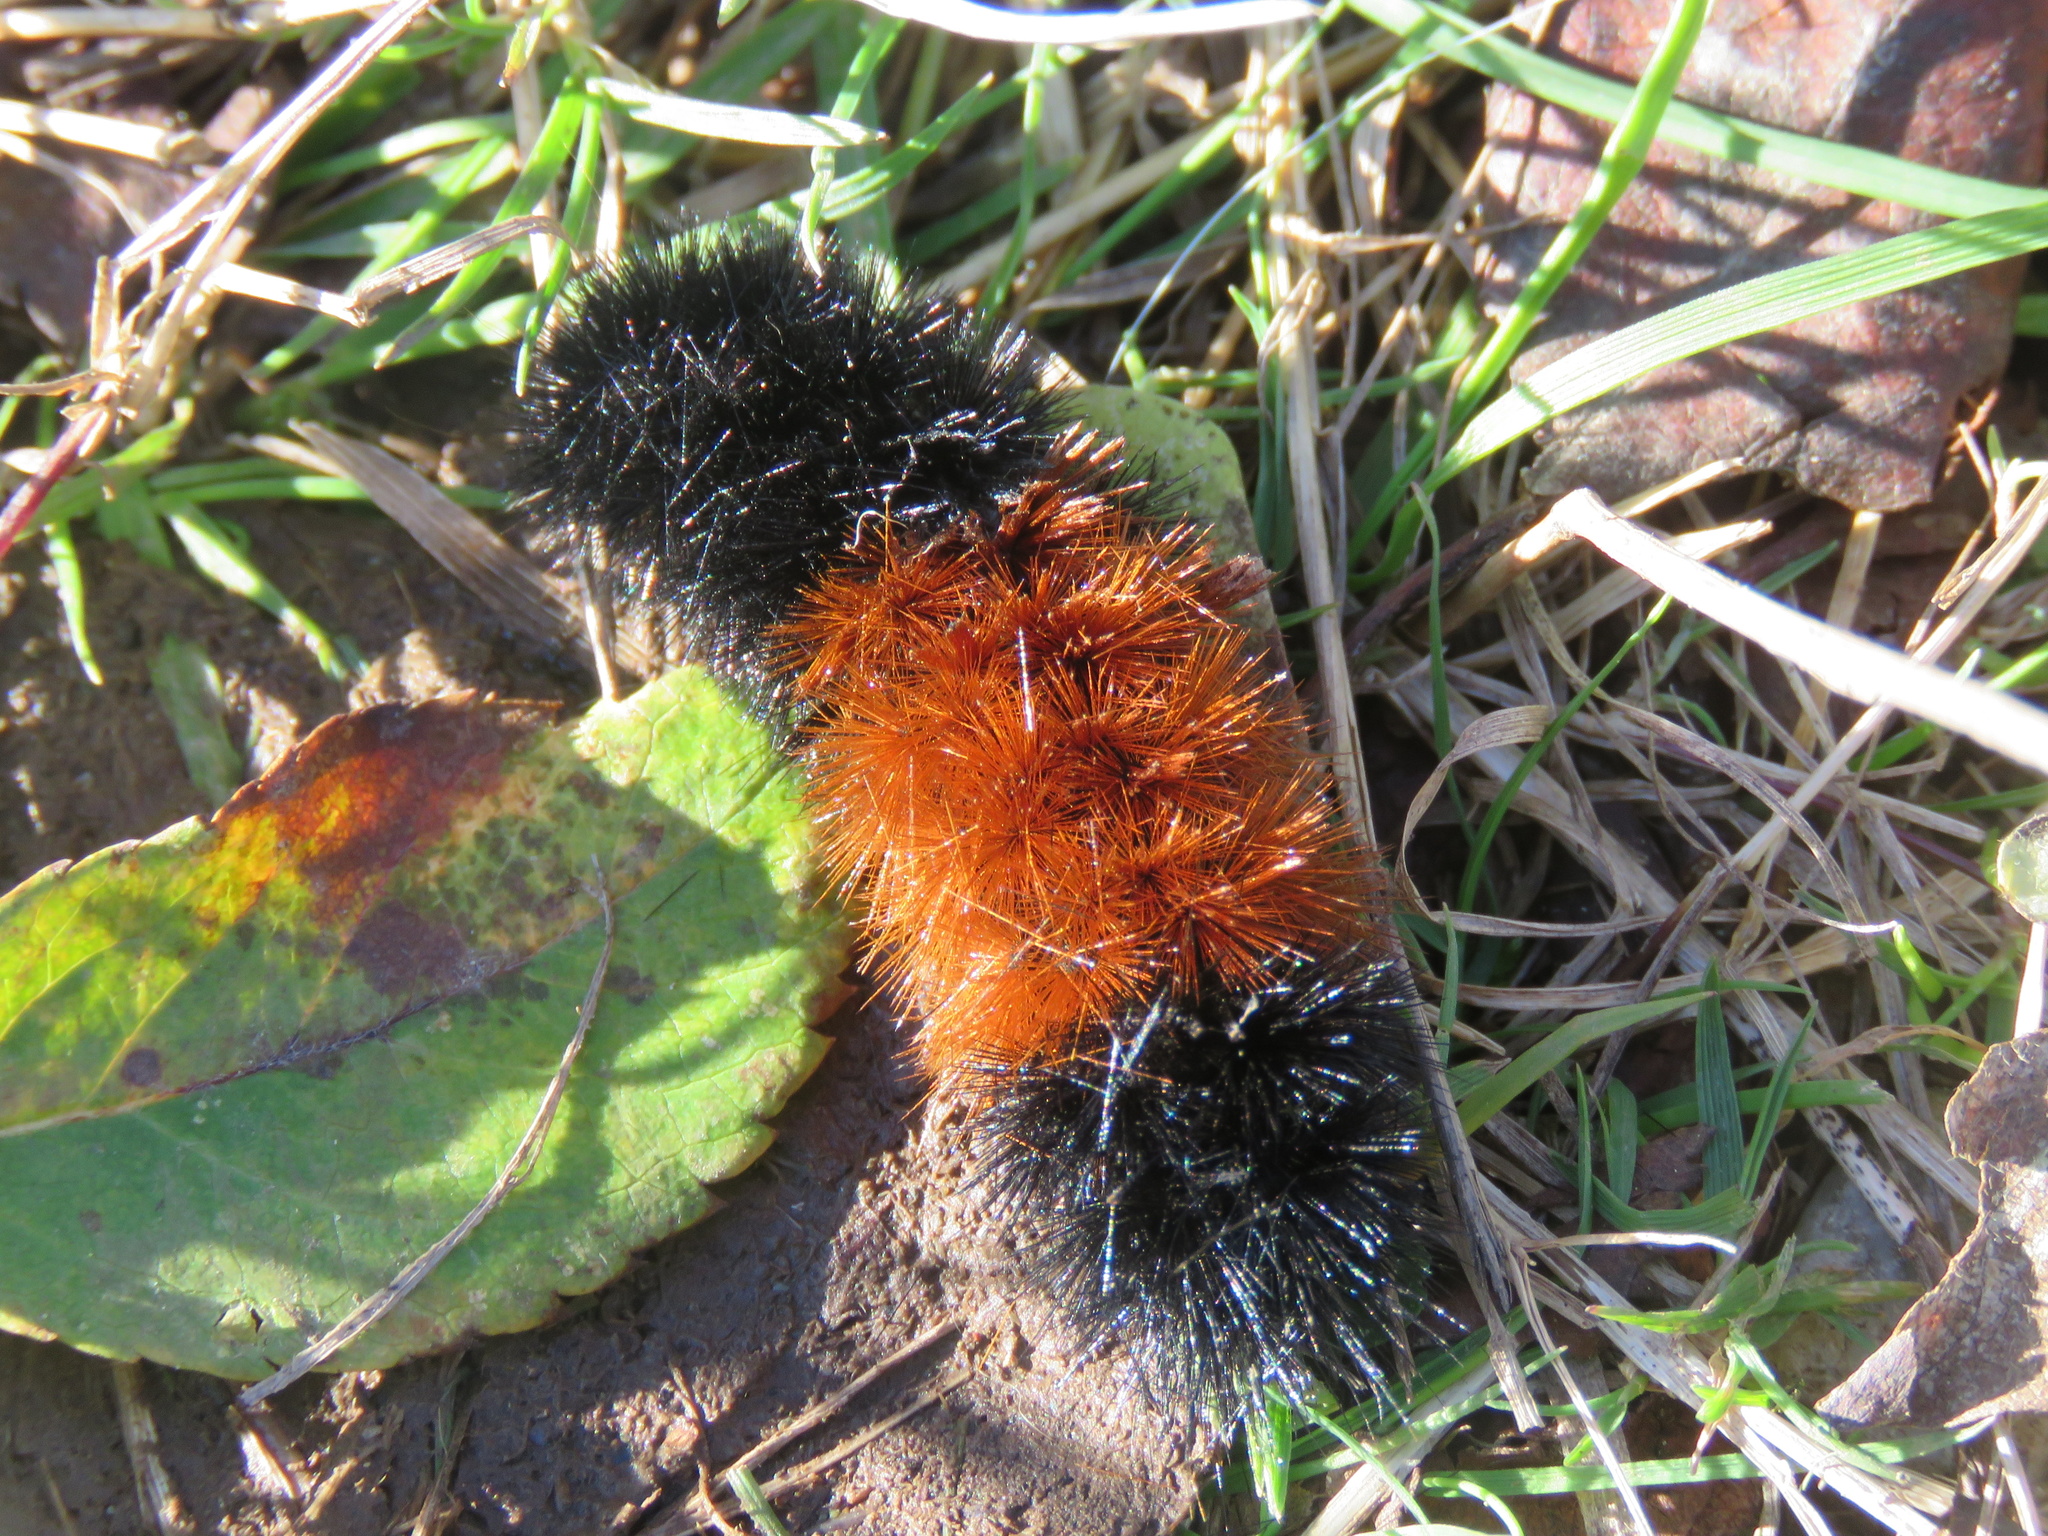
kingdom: Animalia
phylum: Arthropoda
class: Insecta
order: Lepidoptera
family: Erebidae
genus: Pyrrharctia
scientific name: Pyrrharctia isabella
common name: Isabella tiger moth
